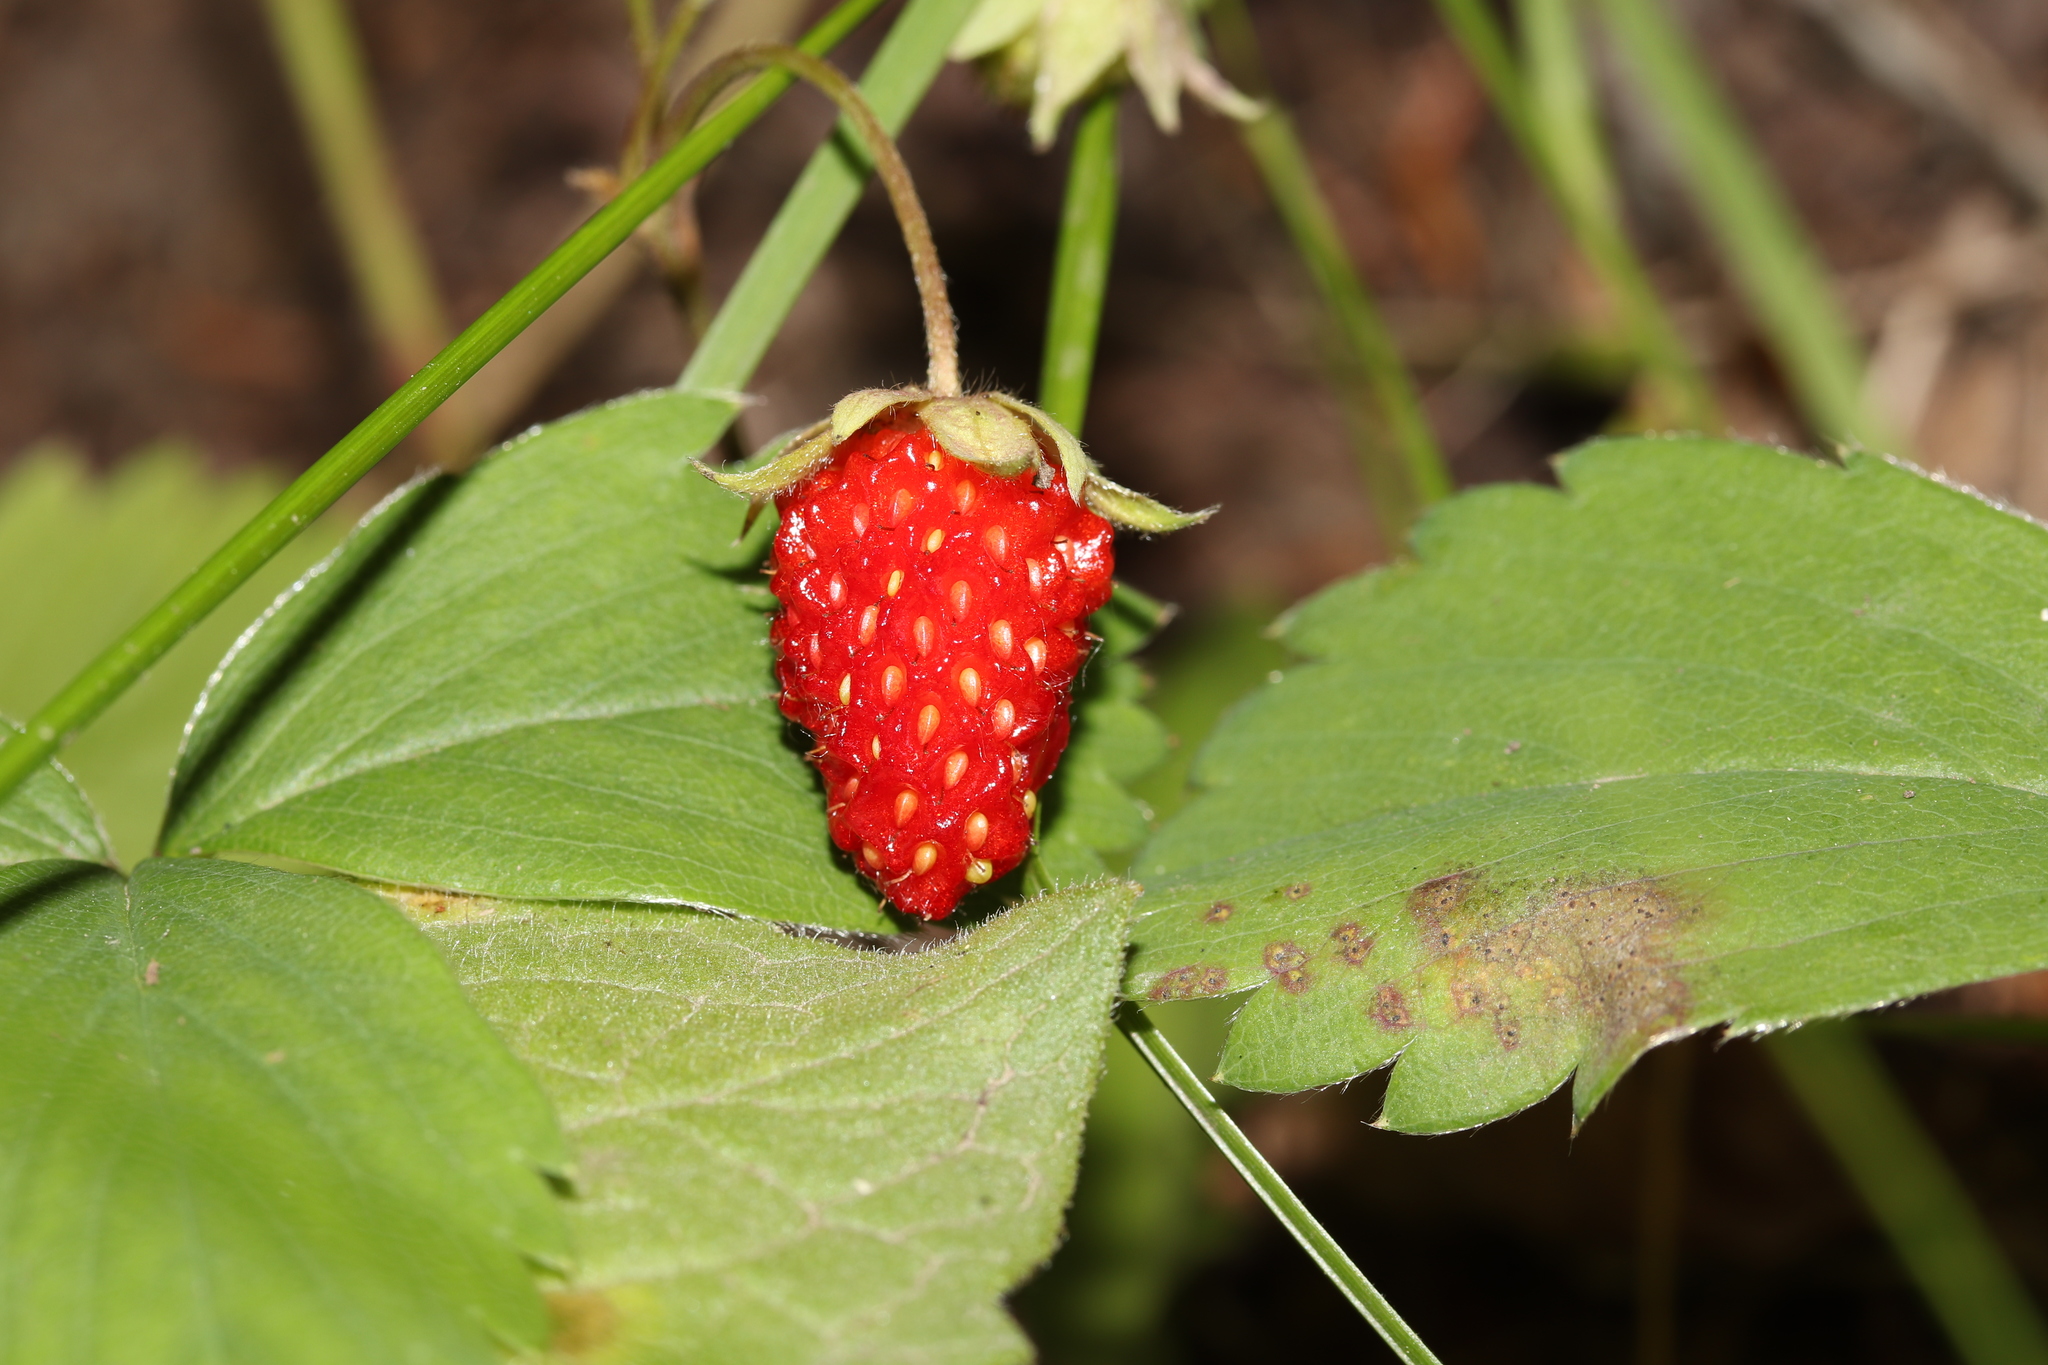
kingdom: Plantae
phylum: Tracheophyta
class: Magnoliopsida
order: Rosales
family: Rosaceae
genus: Fragaria
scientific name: Fragaria virginiana
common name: Thickleaved wild strawberry
